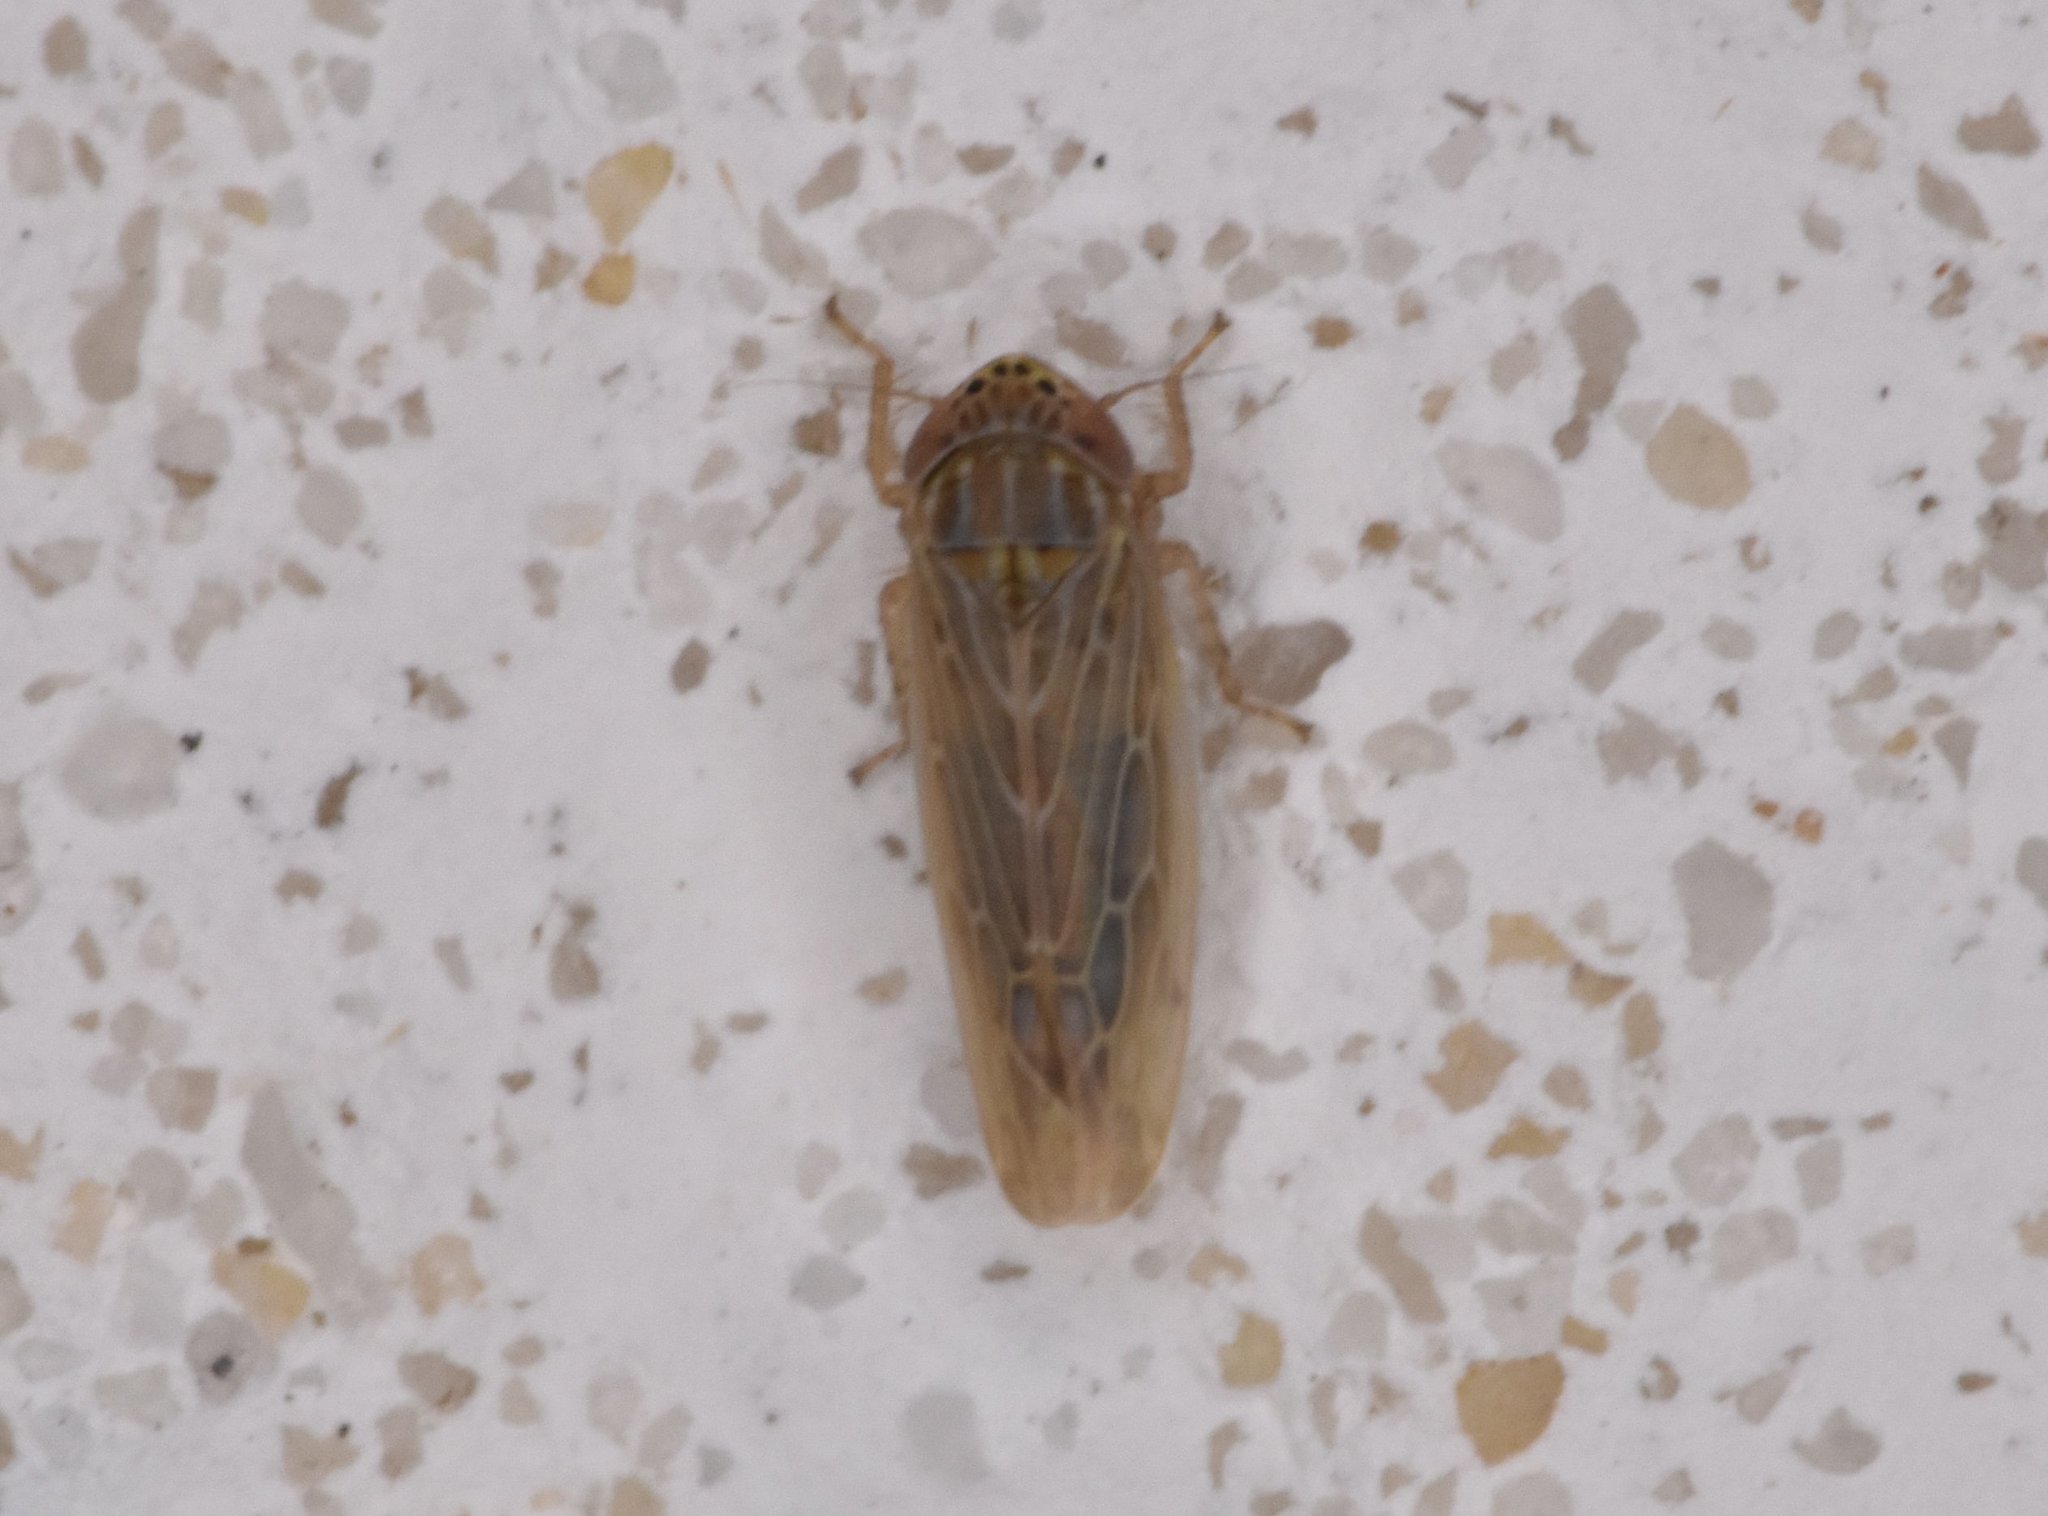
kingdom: Animalia
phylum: Arthropoda
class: Insecta
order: Hemiptera
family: Cicadellidae
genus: Graminella
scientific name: Graminella sonora
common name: Lesser lawn leafhopper
